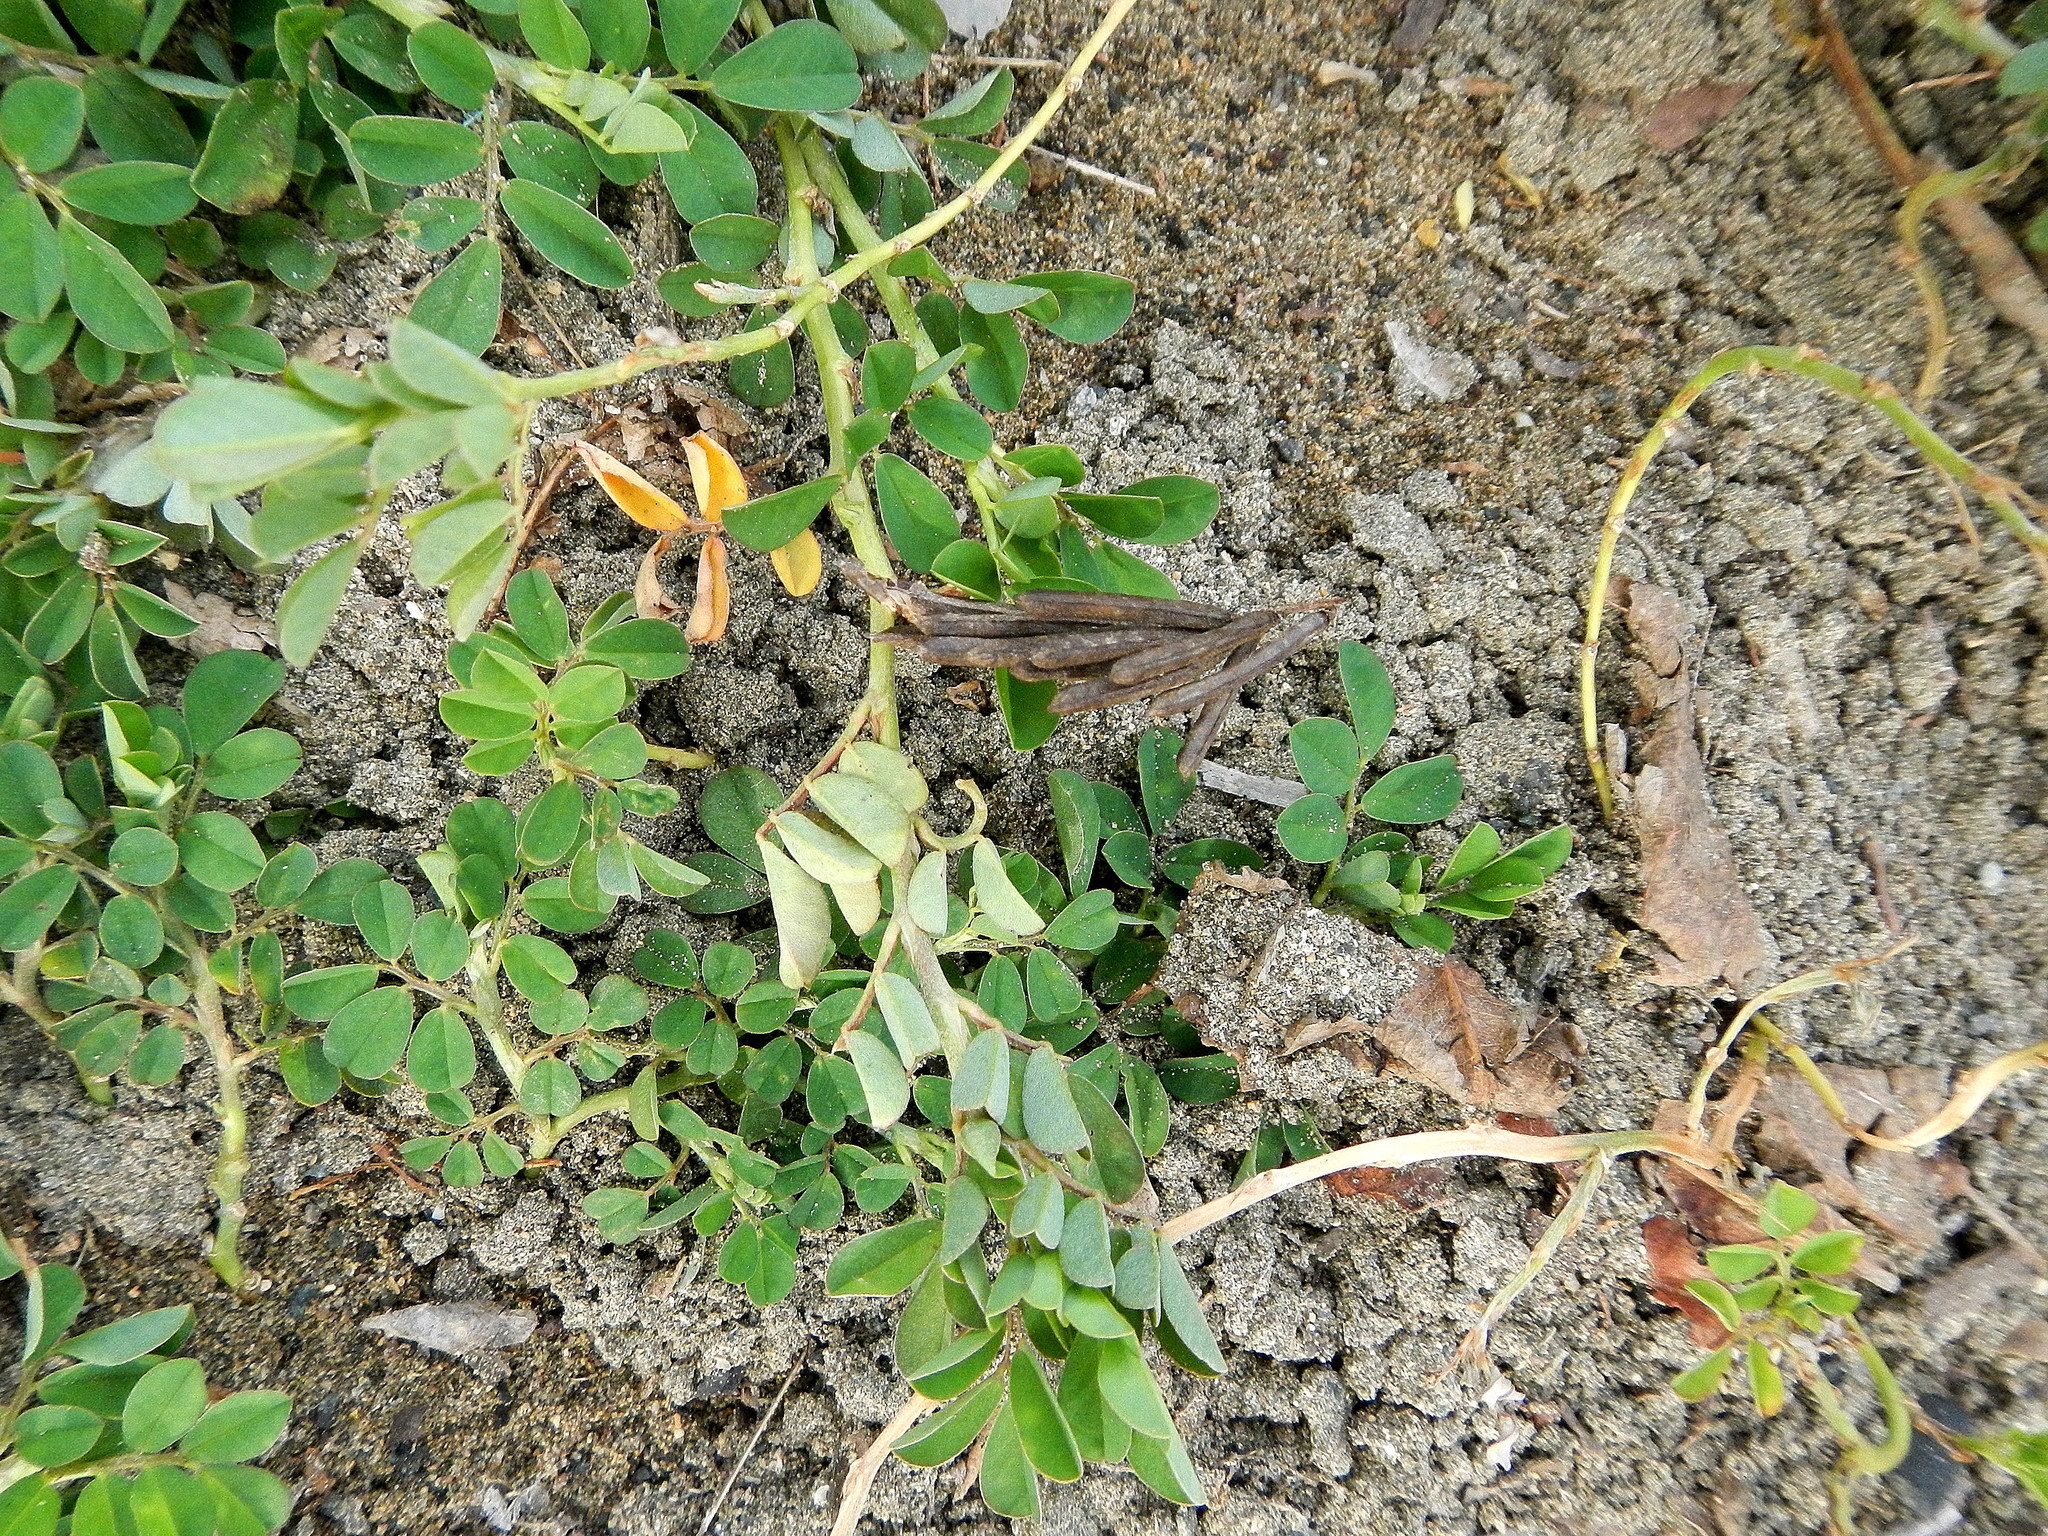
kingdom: Plantae
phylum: Tracheophyta
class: Magnoliopsida
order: Fabales
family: Fabaceae
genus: Indigofera
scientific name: Indigofera spicata
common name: Creeping indigo
